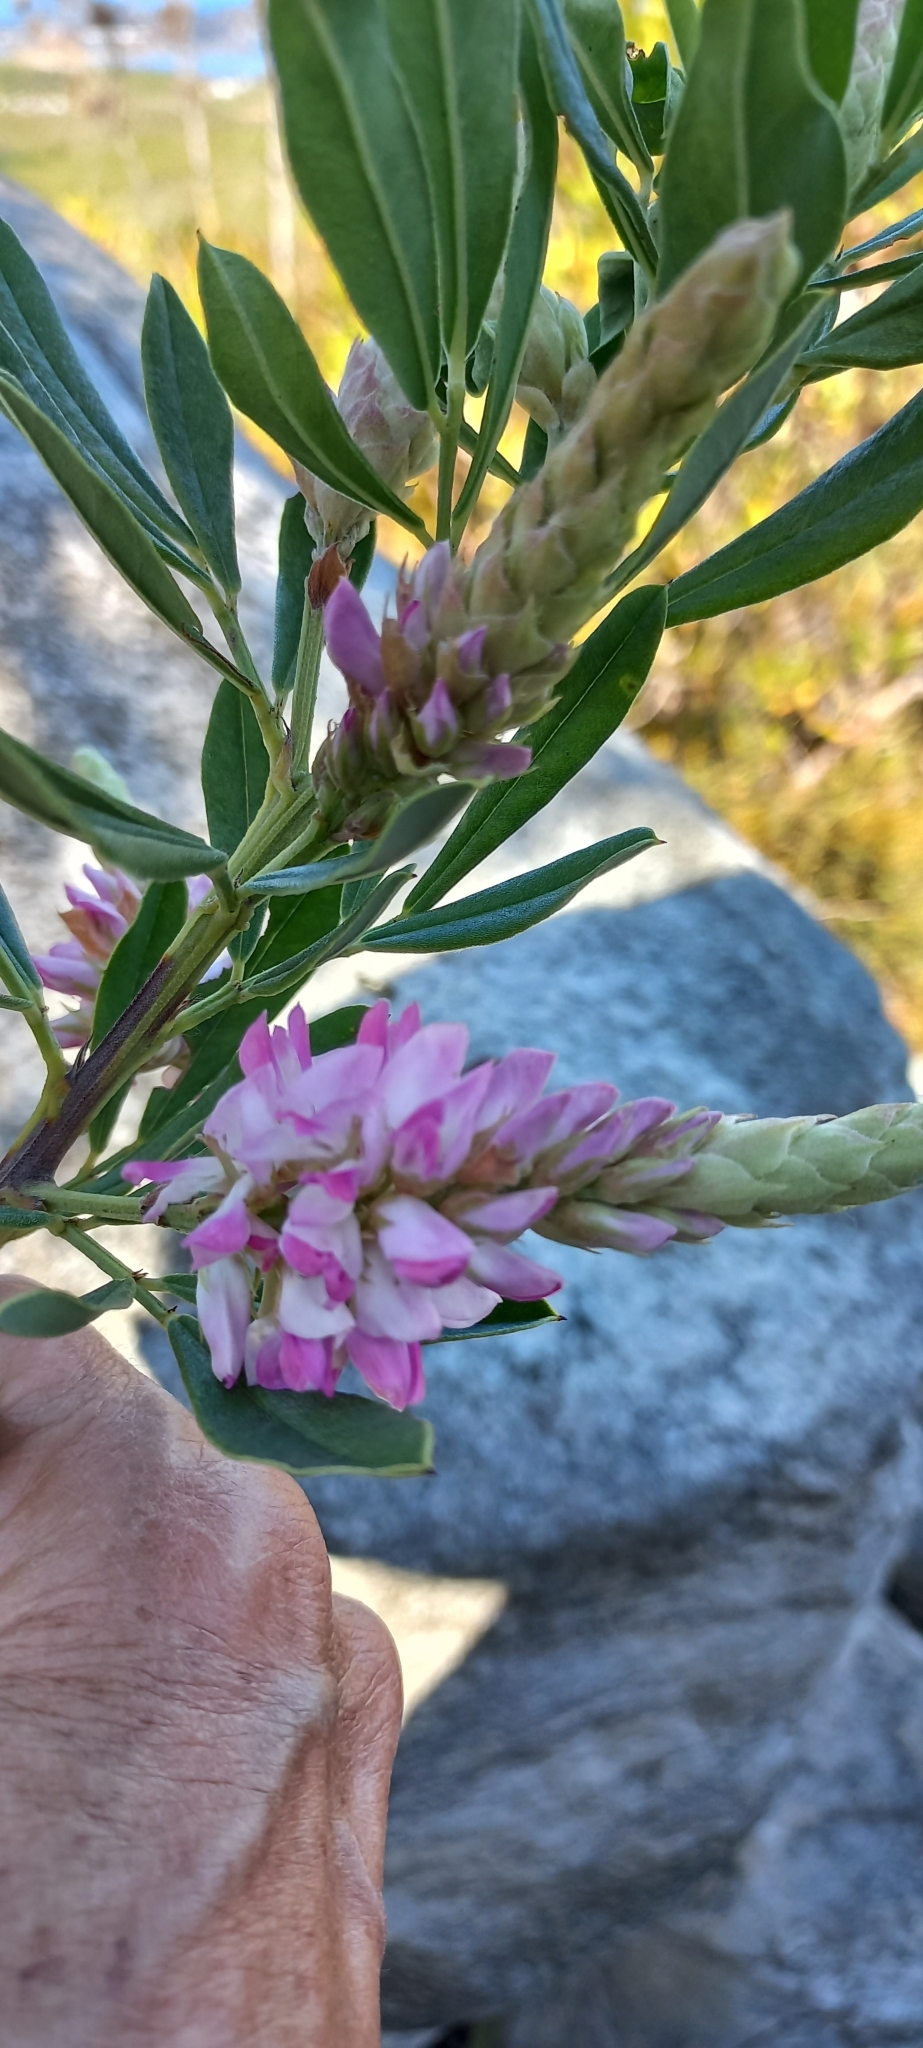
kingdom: Plantae
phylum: Tracheophyta
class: Magnoliopsida
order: Fabales
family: Fabaceae
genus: Indigofera
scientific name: Indigofera cytisoides
